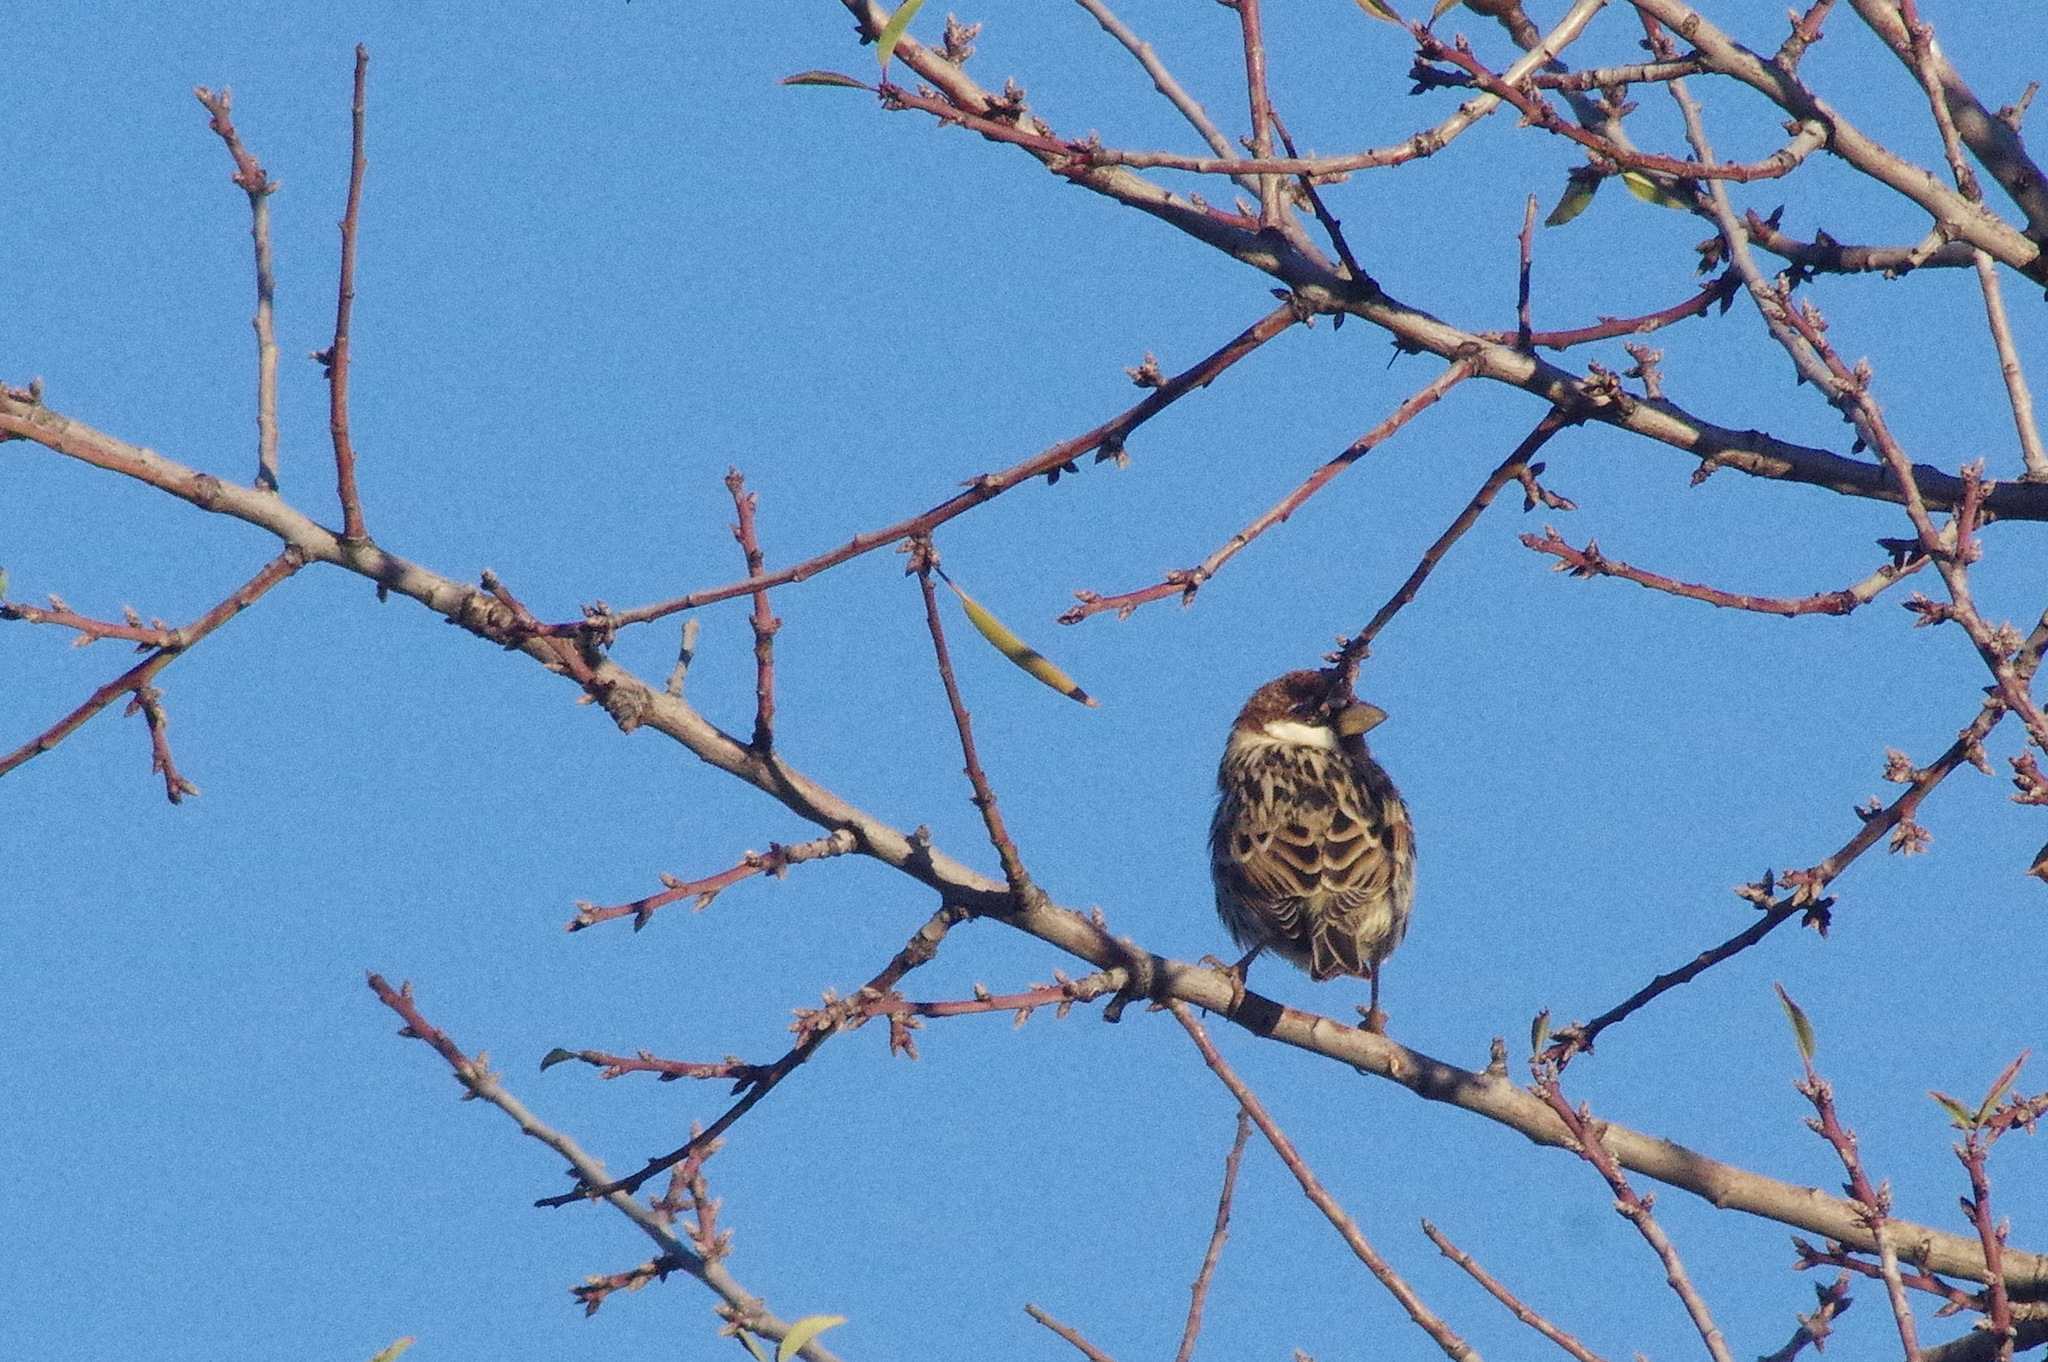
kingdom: Animalia
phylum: Chordata
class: Aves
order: Passeriformes
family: Passeridae
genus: Passer
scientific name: Passer hispaniolensis
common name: Spanish sparrow
